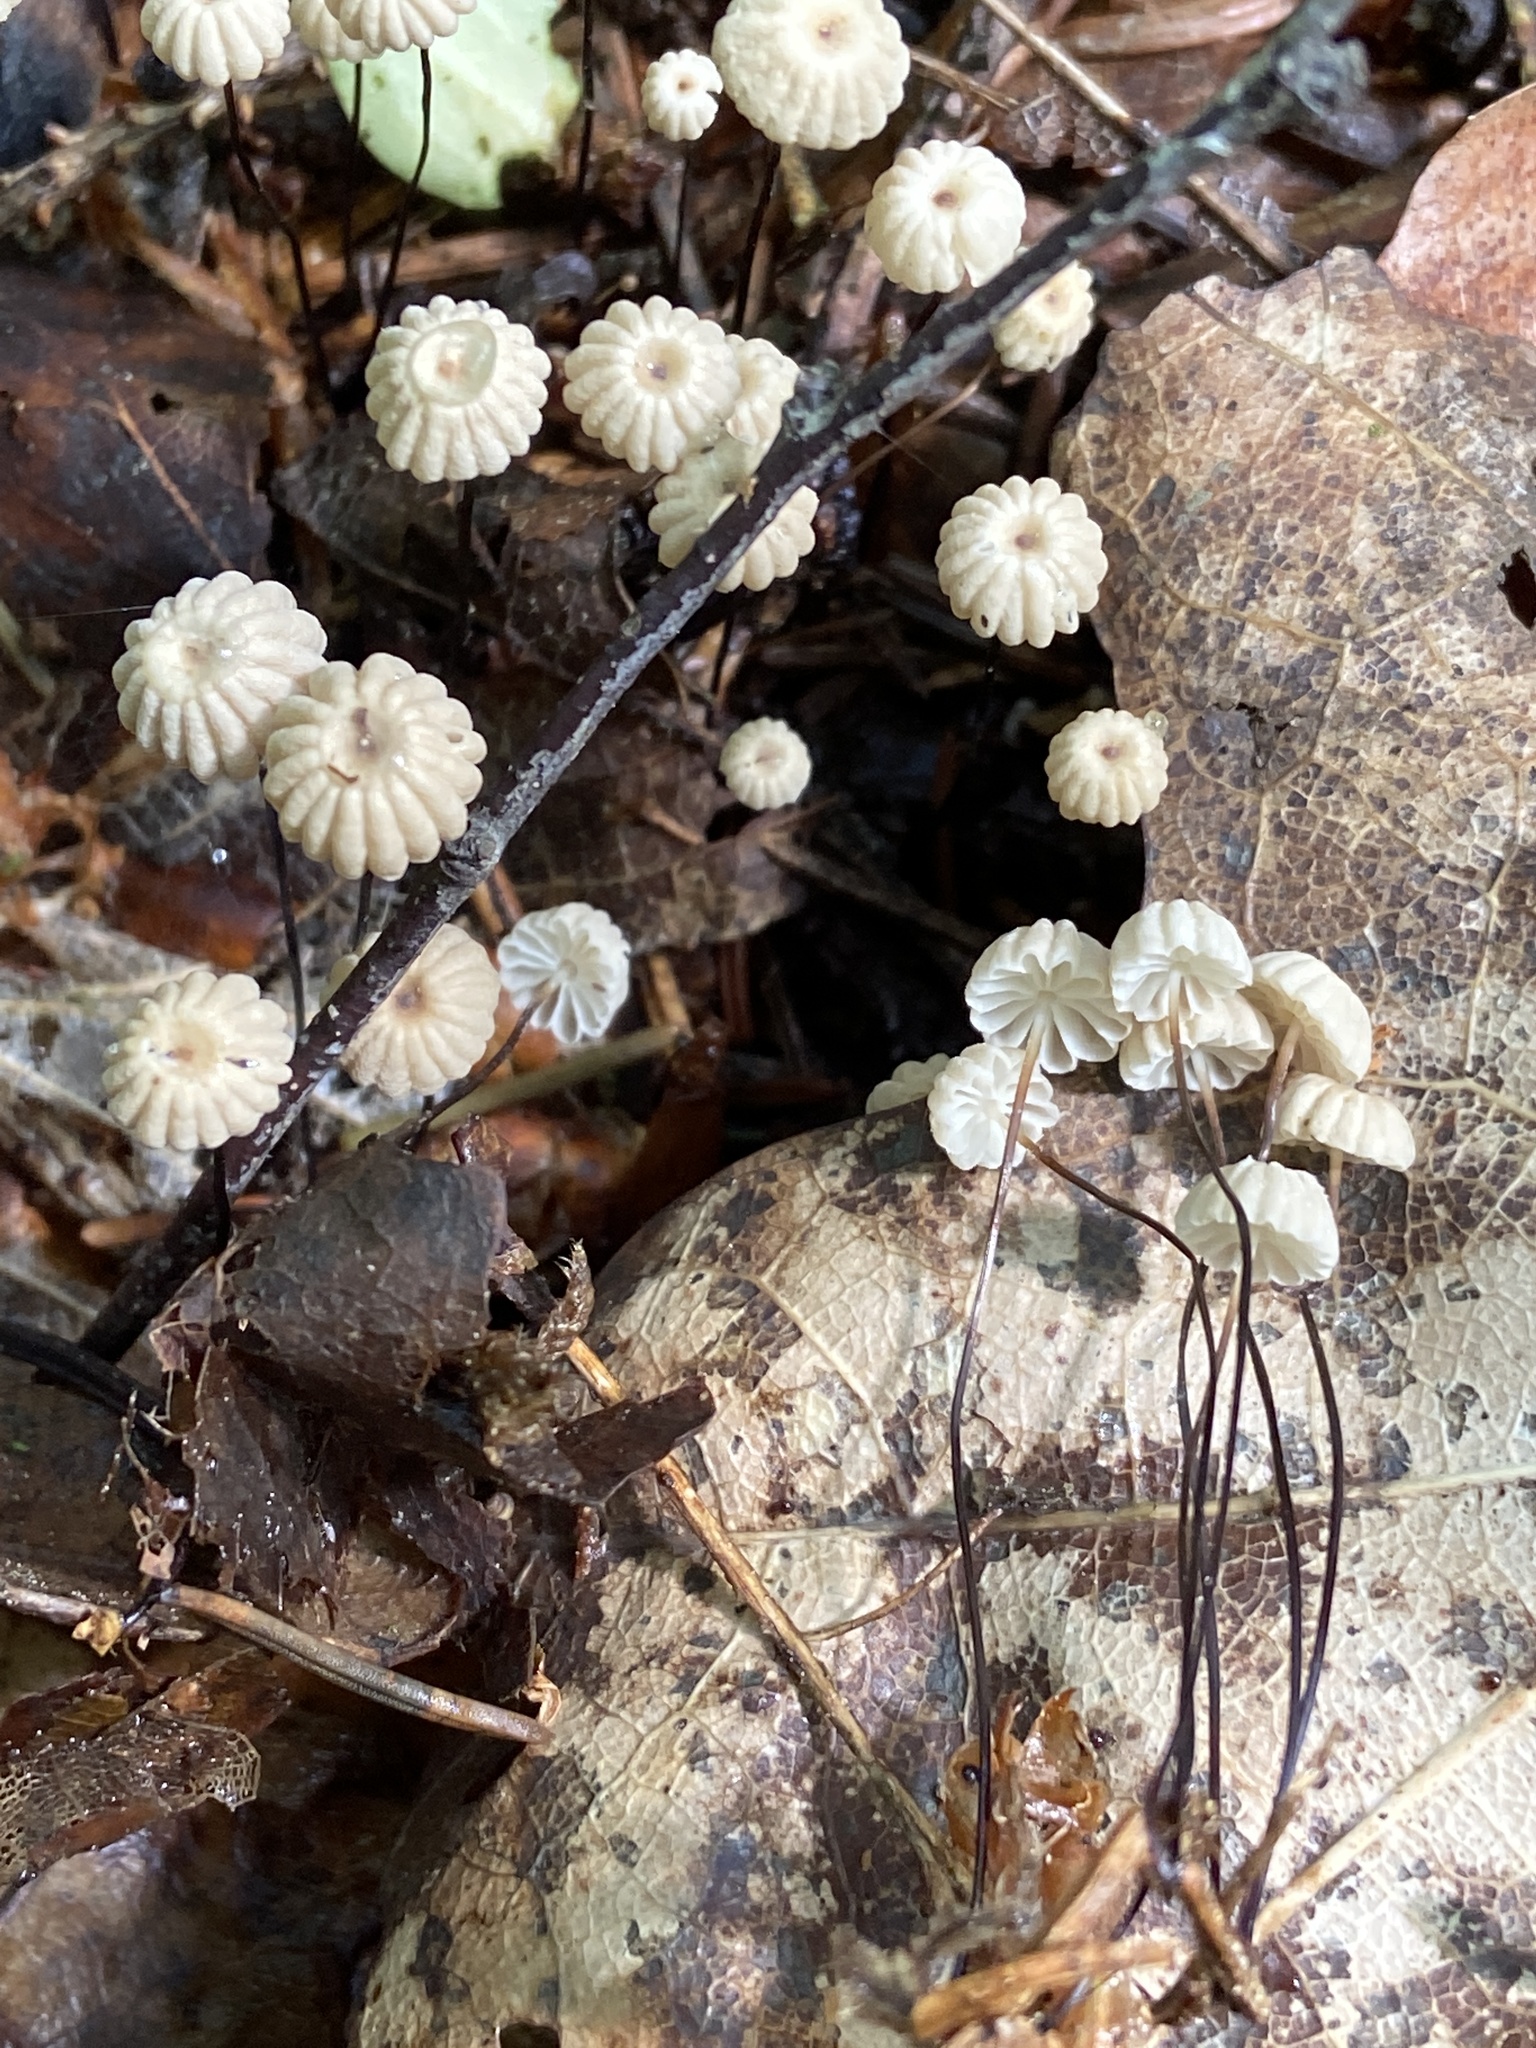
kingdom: Fungi
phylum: Basidiomycota
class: Agaricomycetes
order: Agaricales
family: Marasmiaceae
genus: Marasmius
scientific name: Marasmius rotula
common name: Collared parachute
